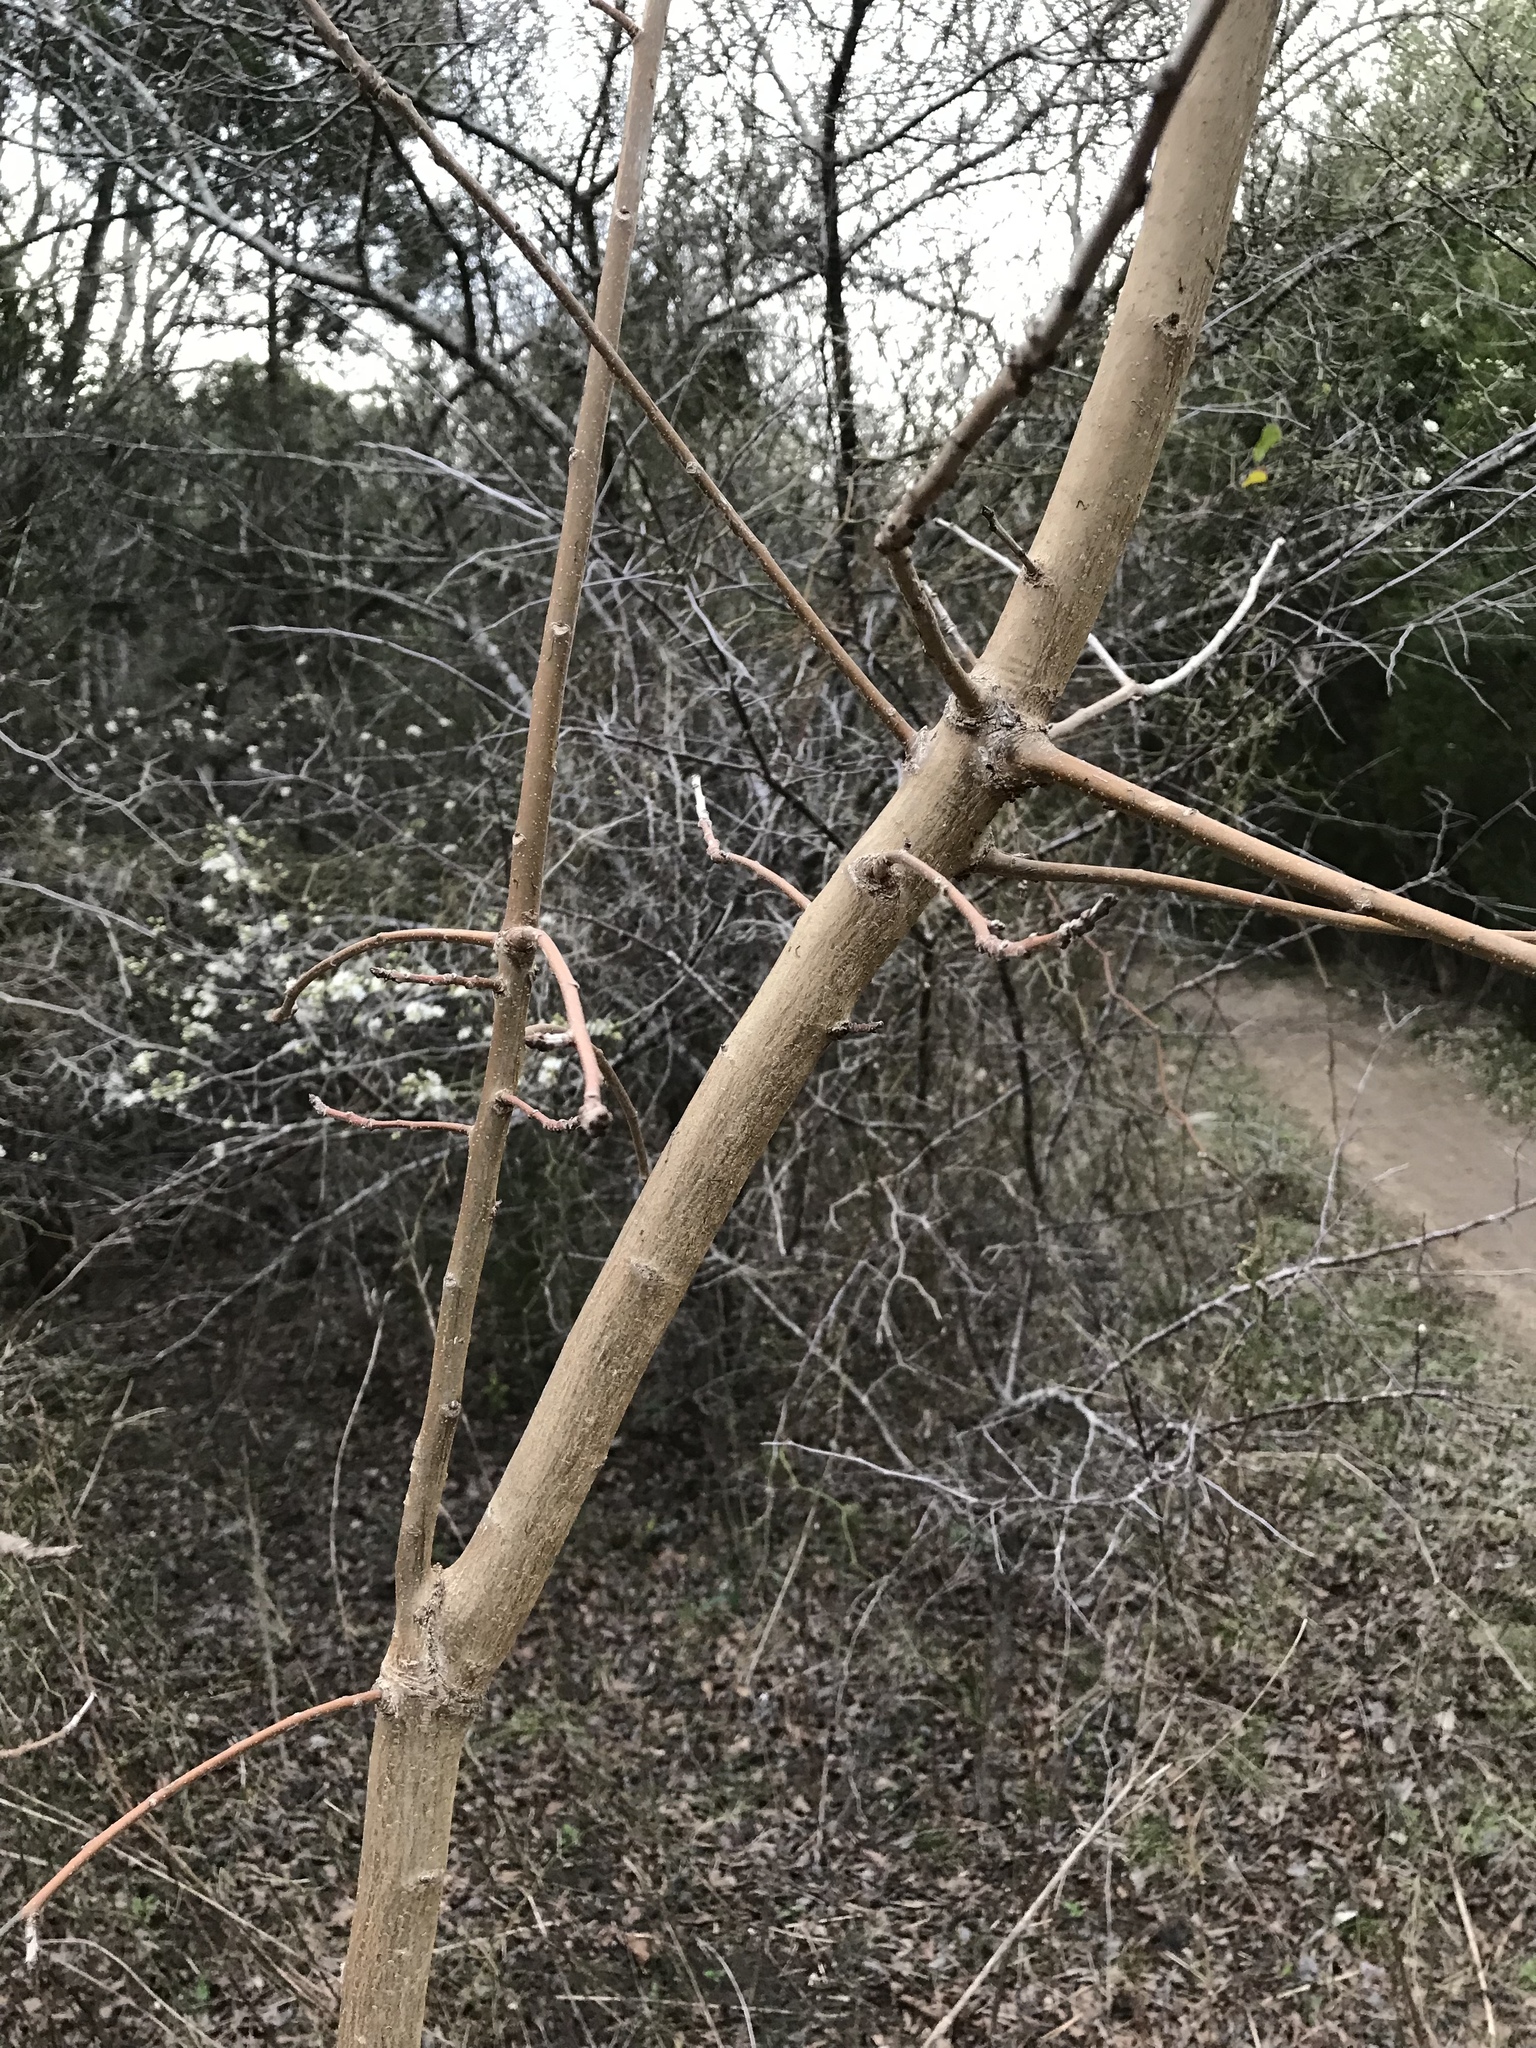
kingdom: Plantae
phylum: Tracheophyta
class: Magnoliopsida
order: Sapindales
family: Anacardiaceae
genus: Pistacia
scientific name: Pistacia chinensis
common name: Chinese pistache
